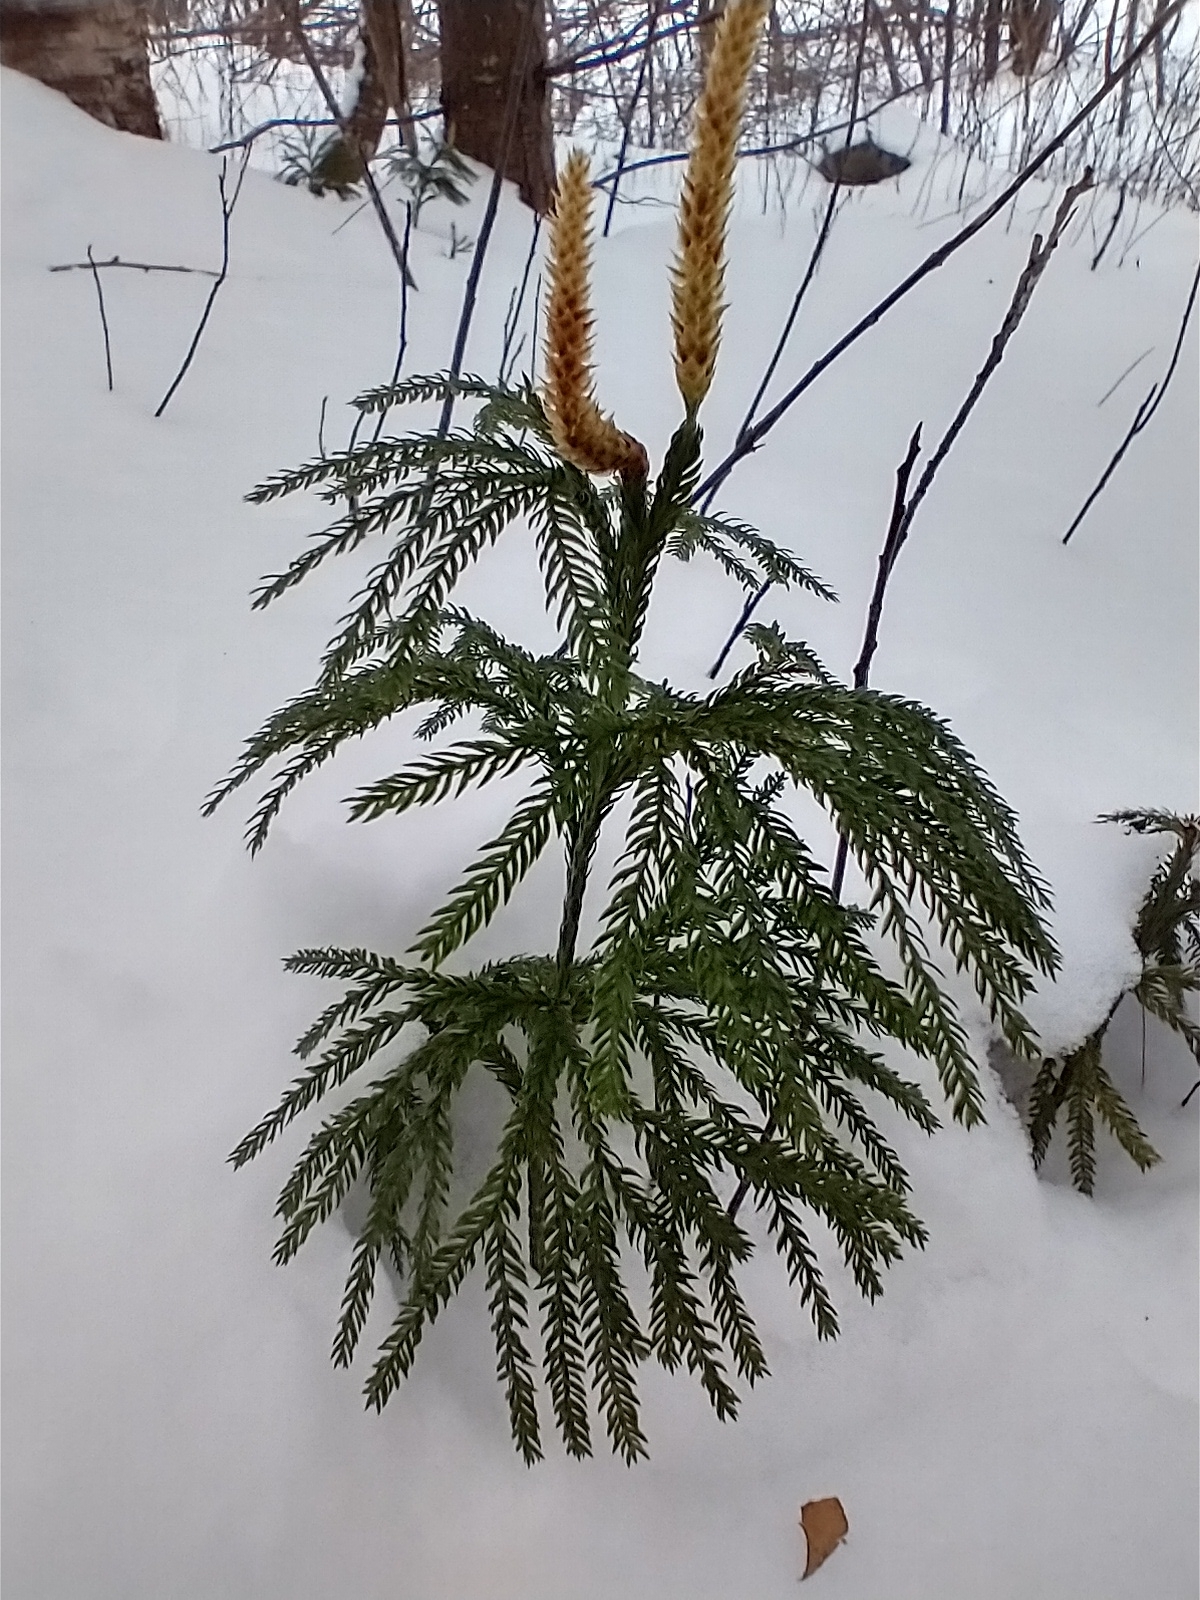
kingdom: Plantae
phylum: Tracheophyta
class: Lycopodiopsida
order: Lycopodiales
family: Lycopodiaceae
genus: Dendrolycopodium
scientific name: Dendrolycopodium obscurum
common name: Common ground-pine
